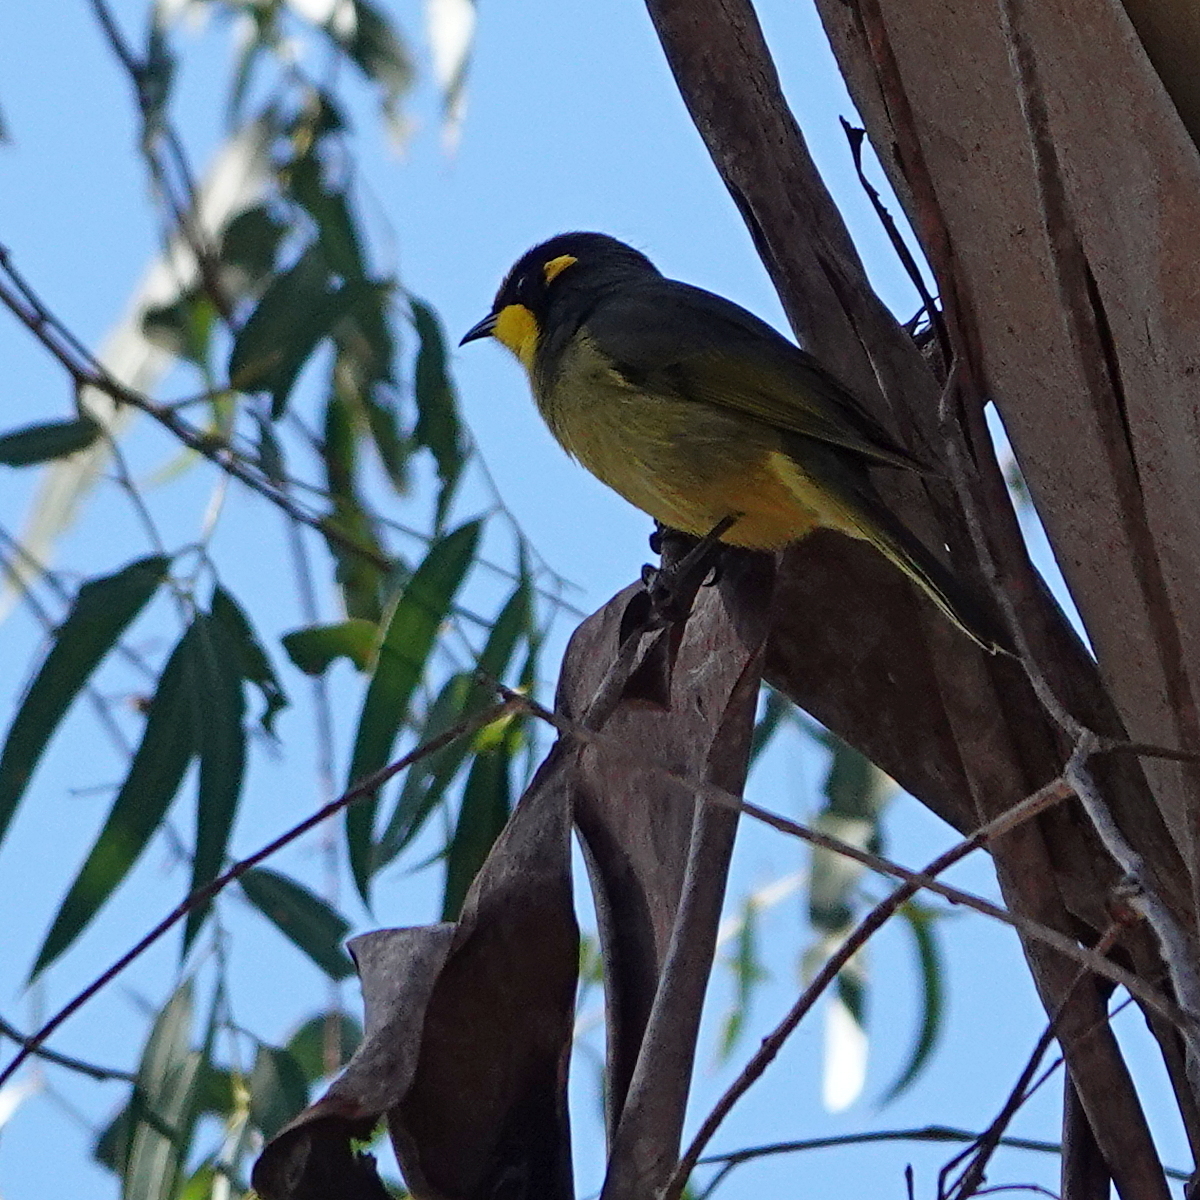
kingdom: Animalia
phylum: Chordata
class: Aves
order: Passeriformes
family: Meliphagidae
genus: Lichenostomus
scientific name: Lichenostomus melanops
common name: Yellow-tufted honeyeater
